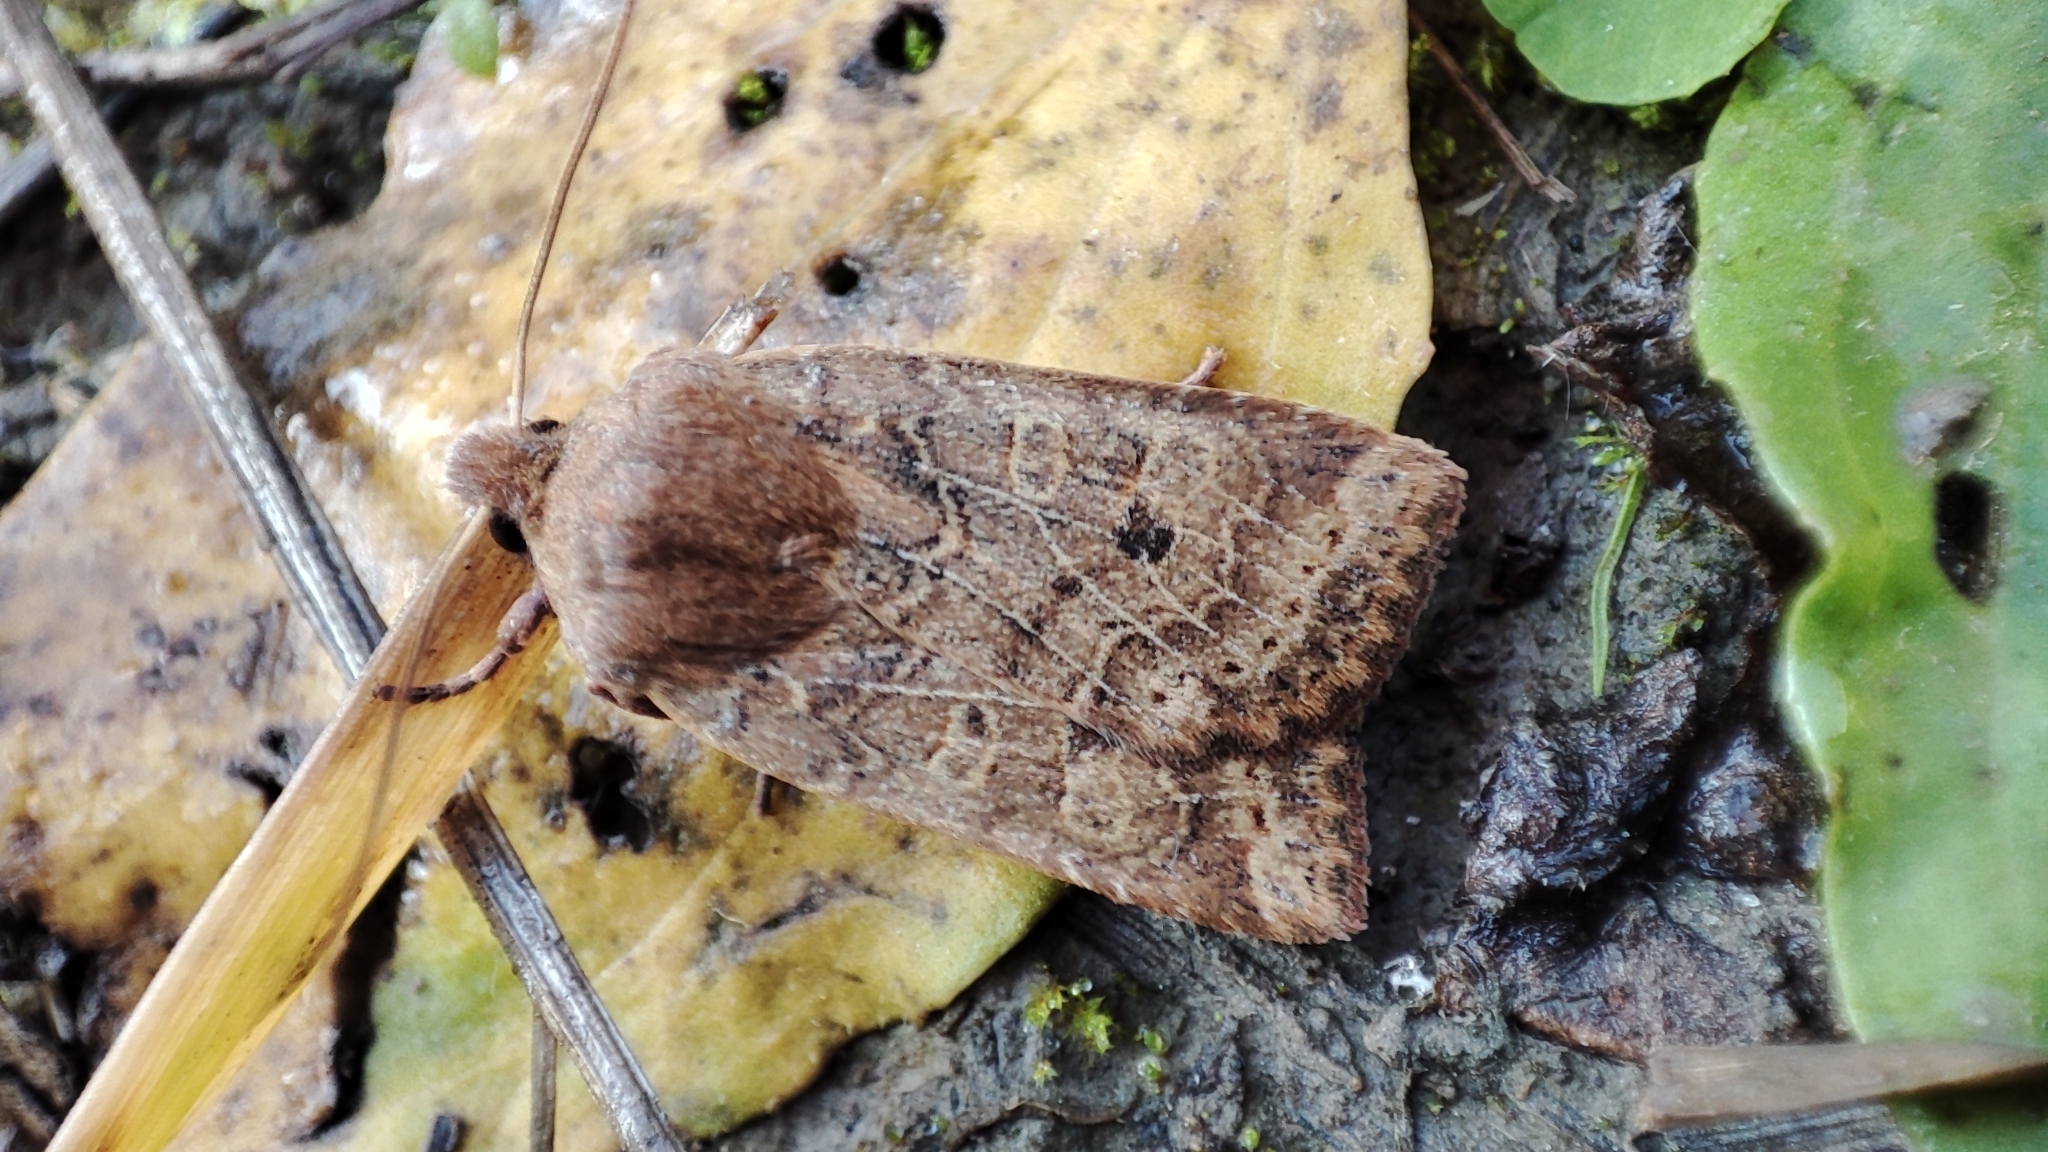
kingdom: Animalia
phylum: Arthropoda
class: Insecta
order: Lepidoptera
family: Noctuidae
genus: Conistra
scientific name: Conistra vaccinii
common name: Chestnut
